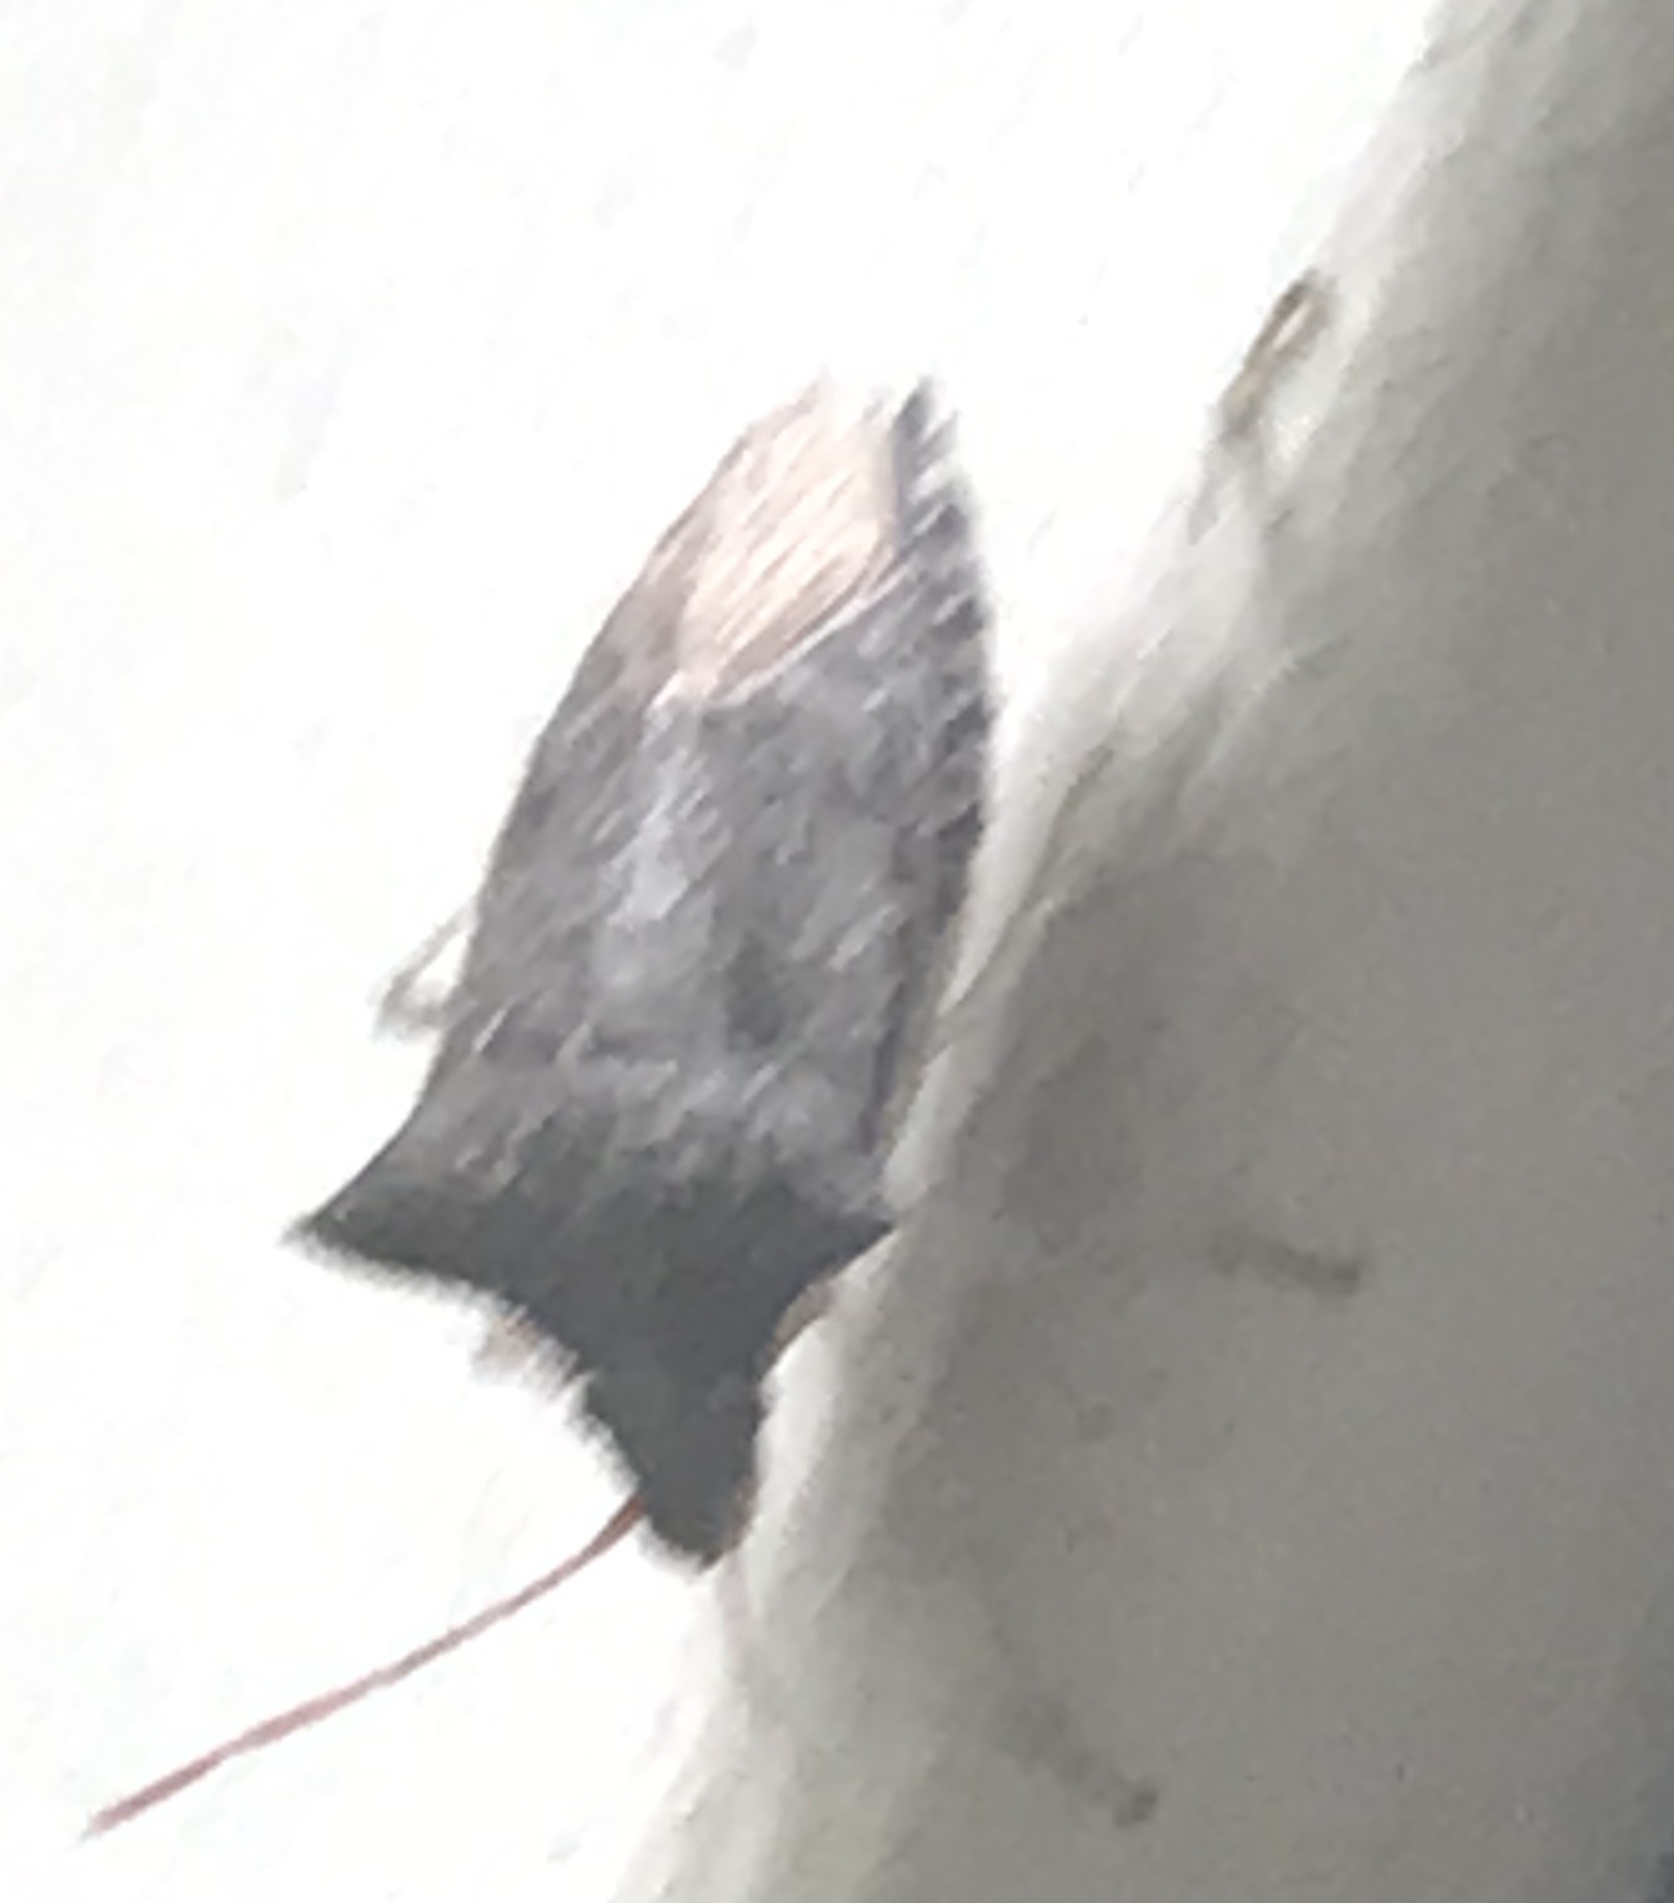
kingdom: Animalia
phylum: Arthropoda
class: Insecta
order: Hemiptera
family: Pentatomidae
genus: Euschistus
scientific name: Euschistus tristigmus
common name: Dusky stink bug
